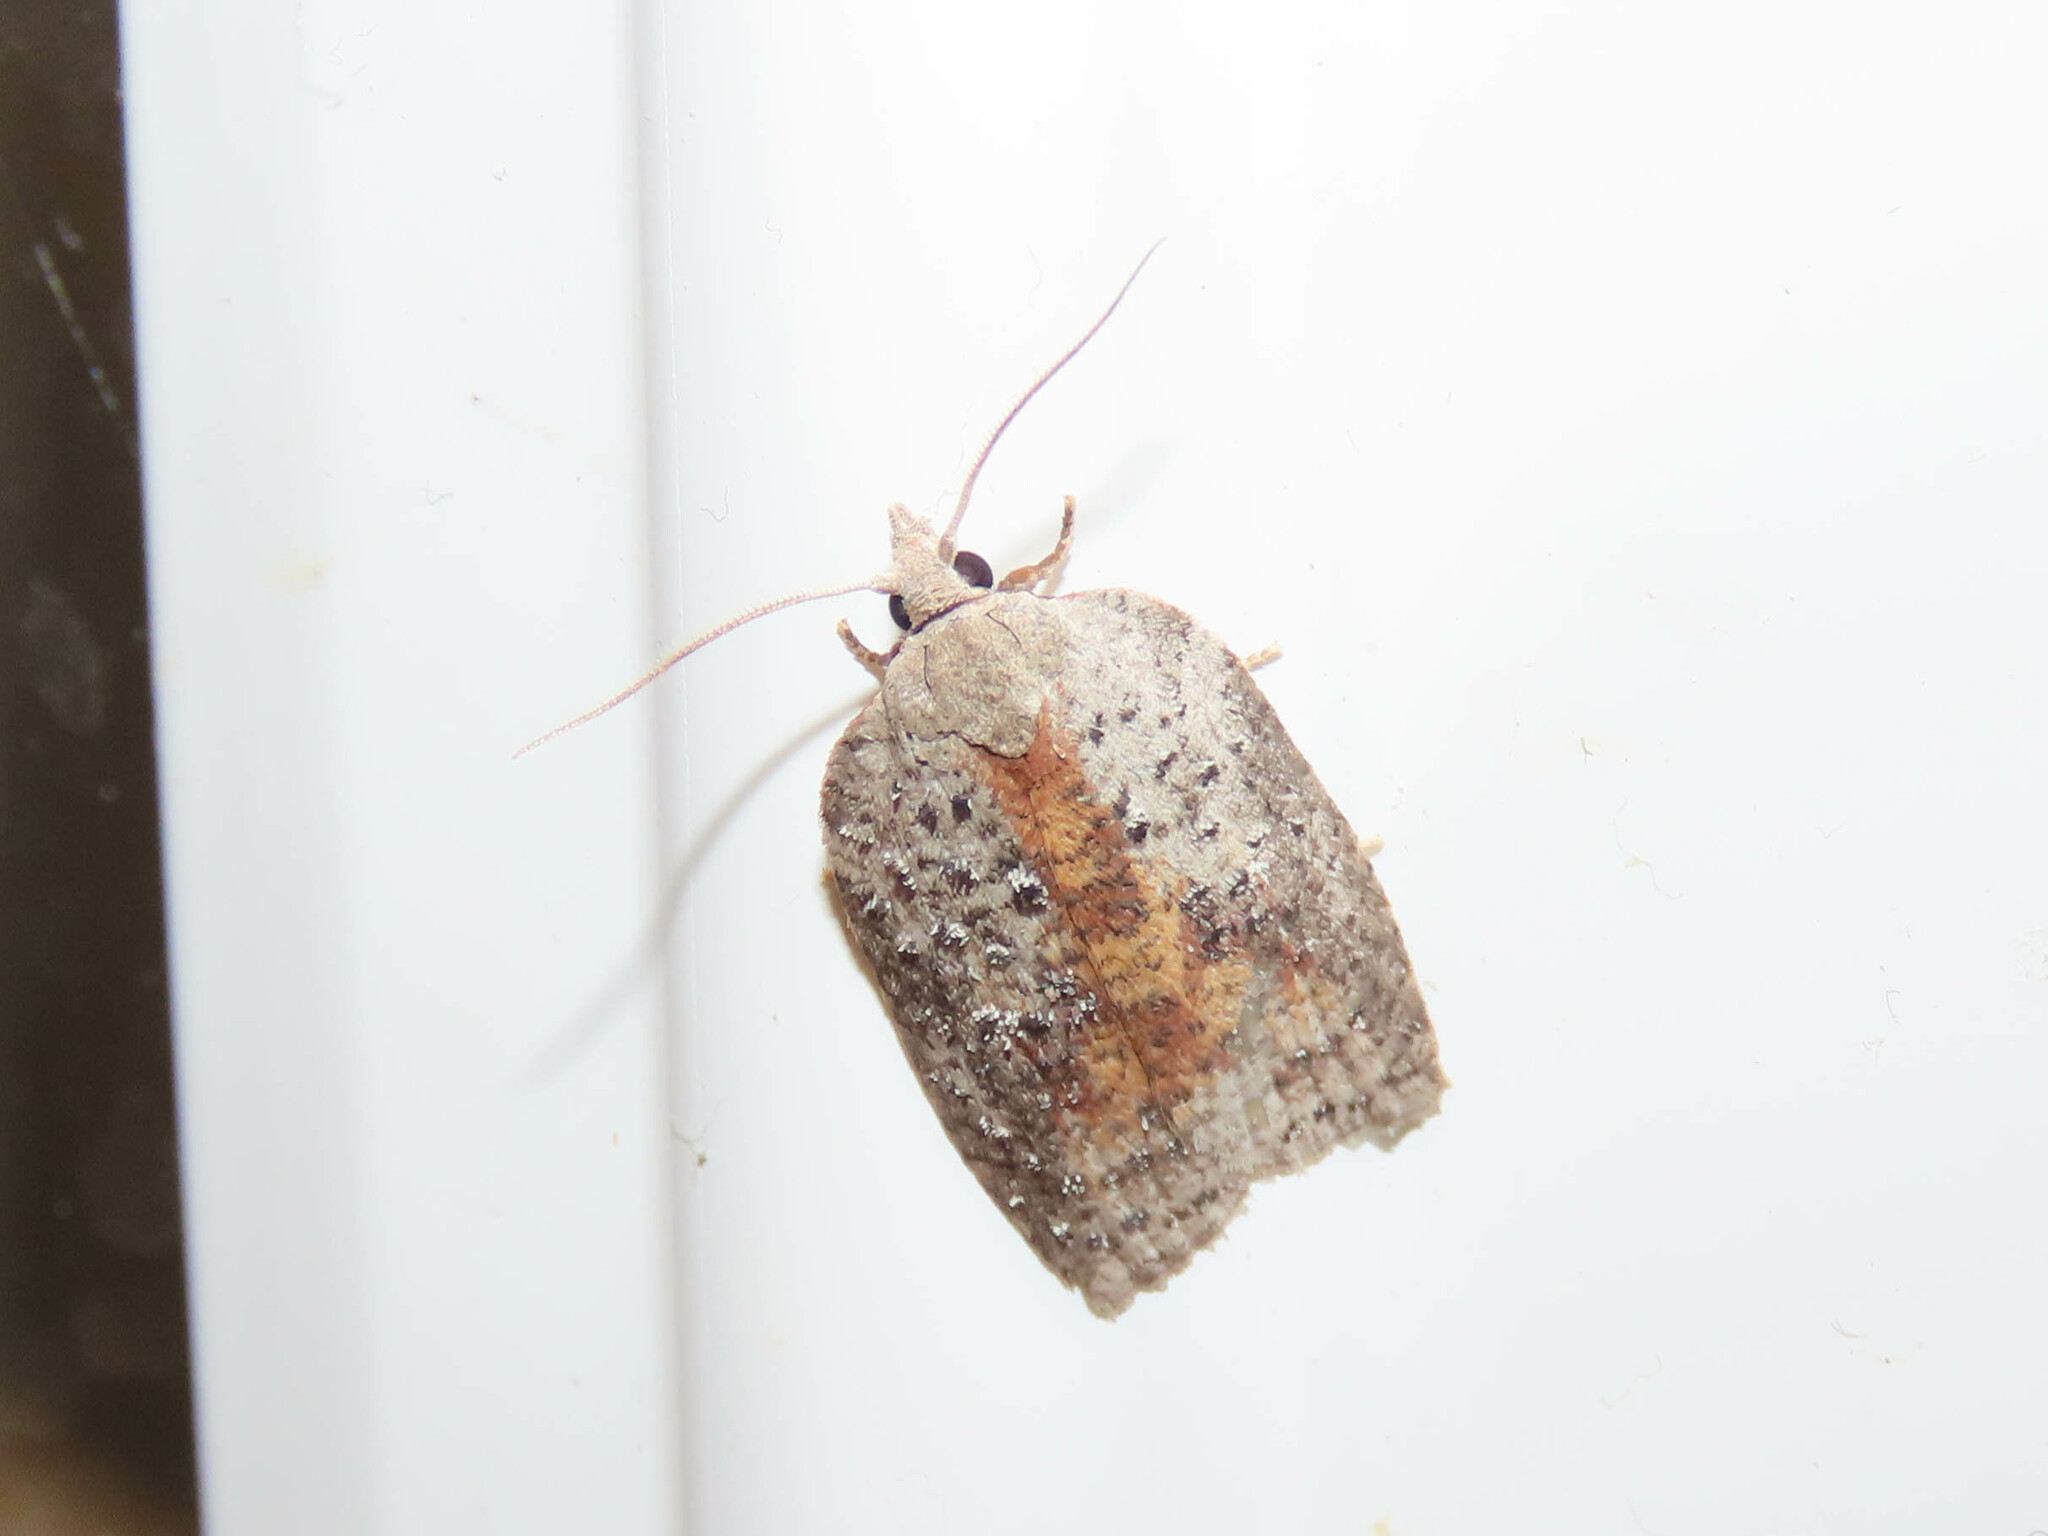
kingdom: Animalia
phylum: Arthropoda
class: Insecta
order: Lepidoptera
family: Tortricidae
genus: Amorbia
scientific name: Amorbia humerosana
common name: White-lined leafroller moth
